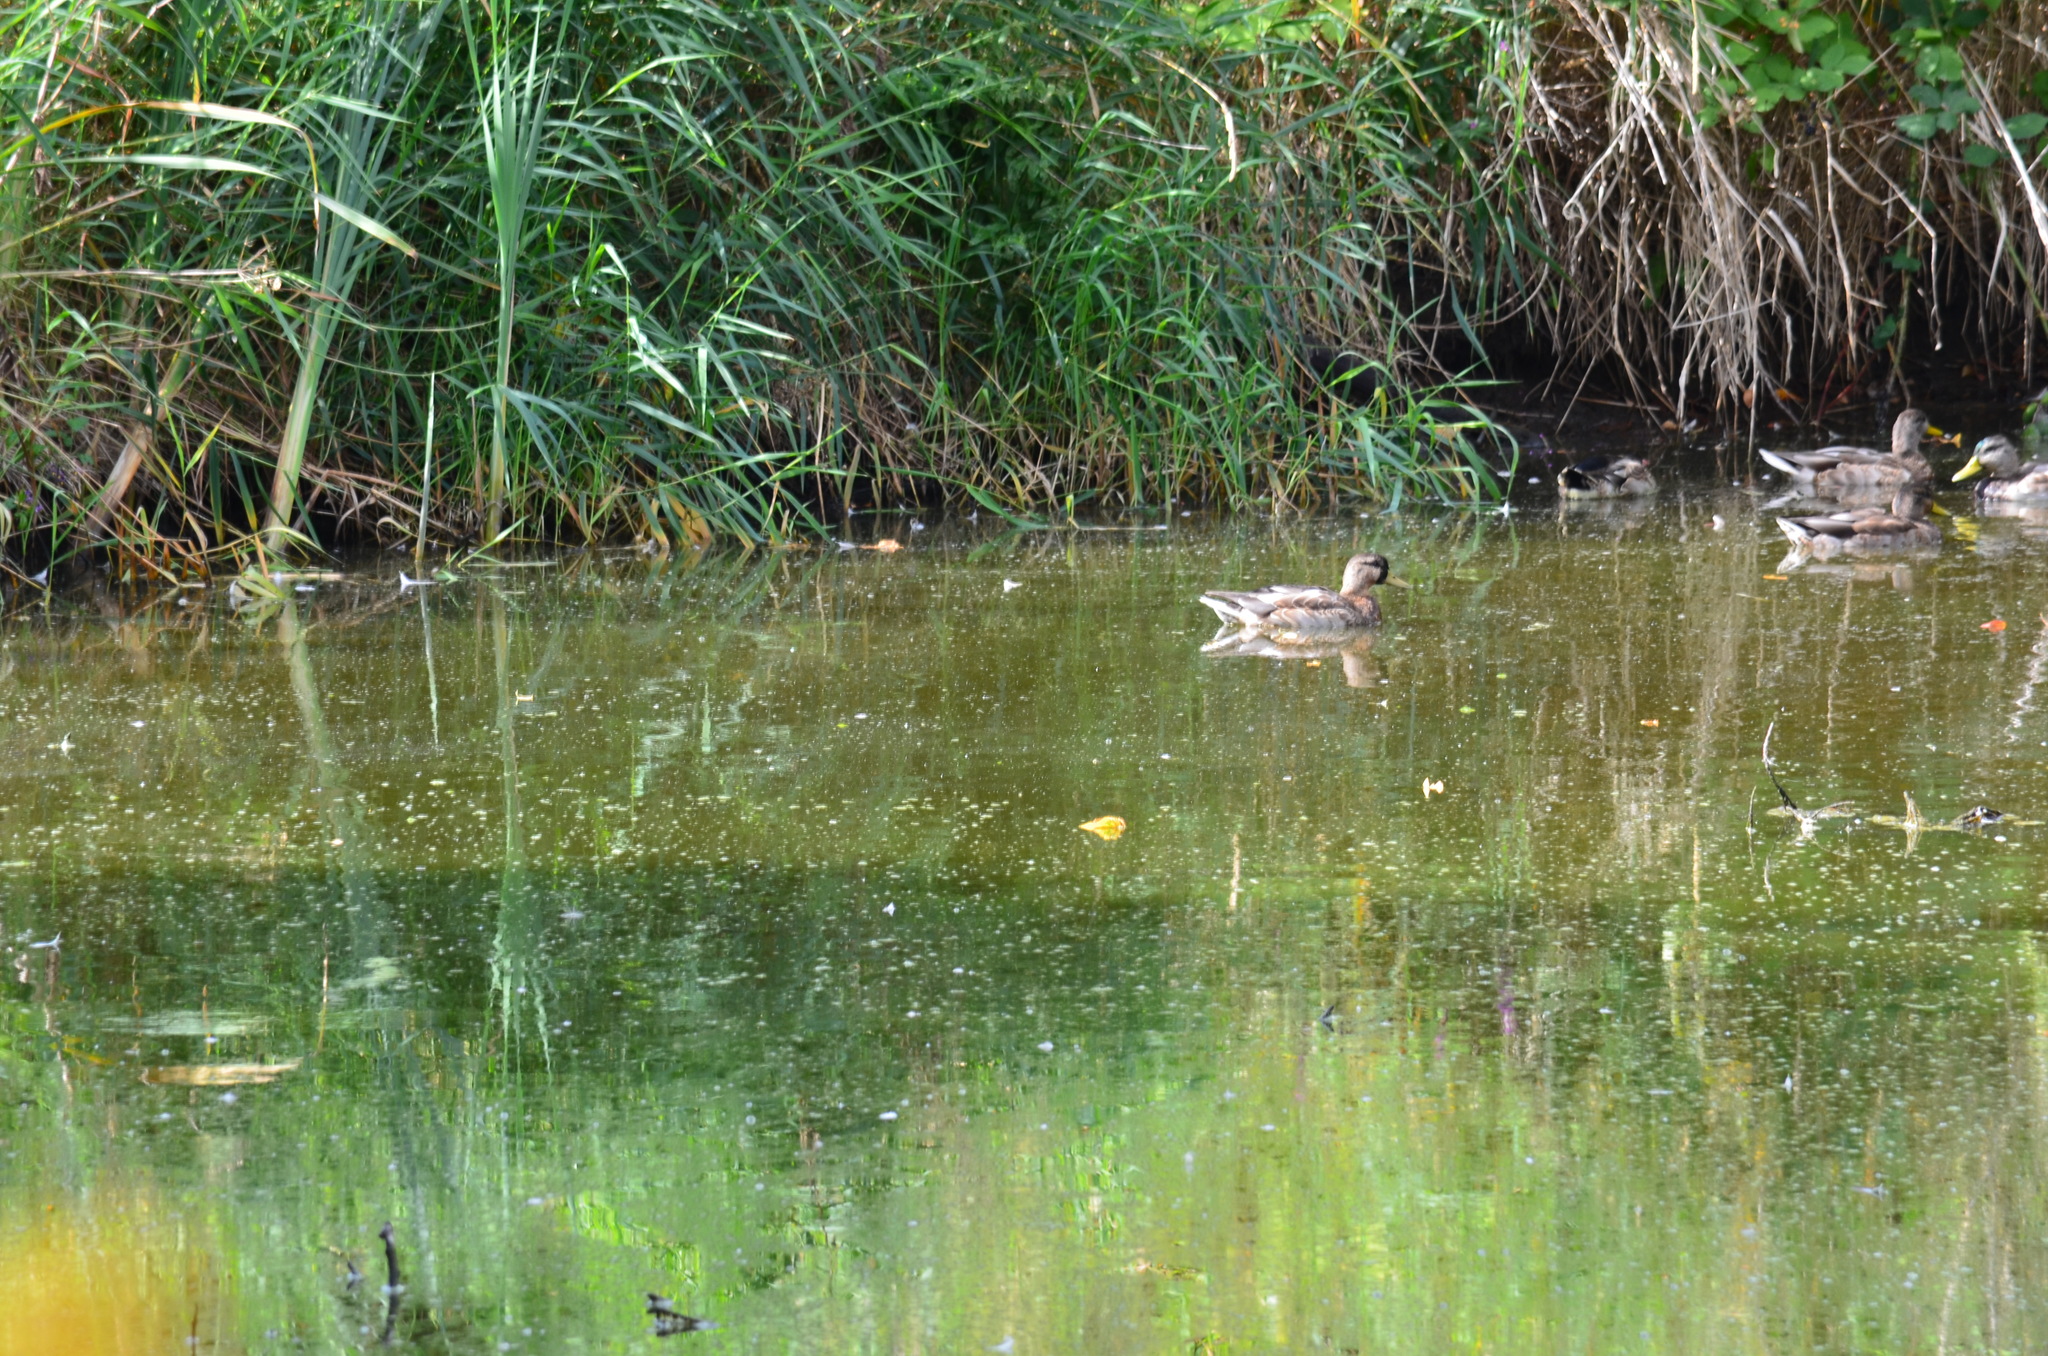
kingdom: Animalia
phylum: Chordata
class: Aves
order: Anseriformes
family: Anatidae
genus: Anas
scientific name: Anas platyrhynchos
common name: Mallard
